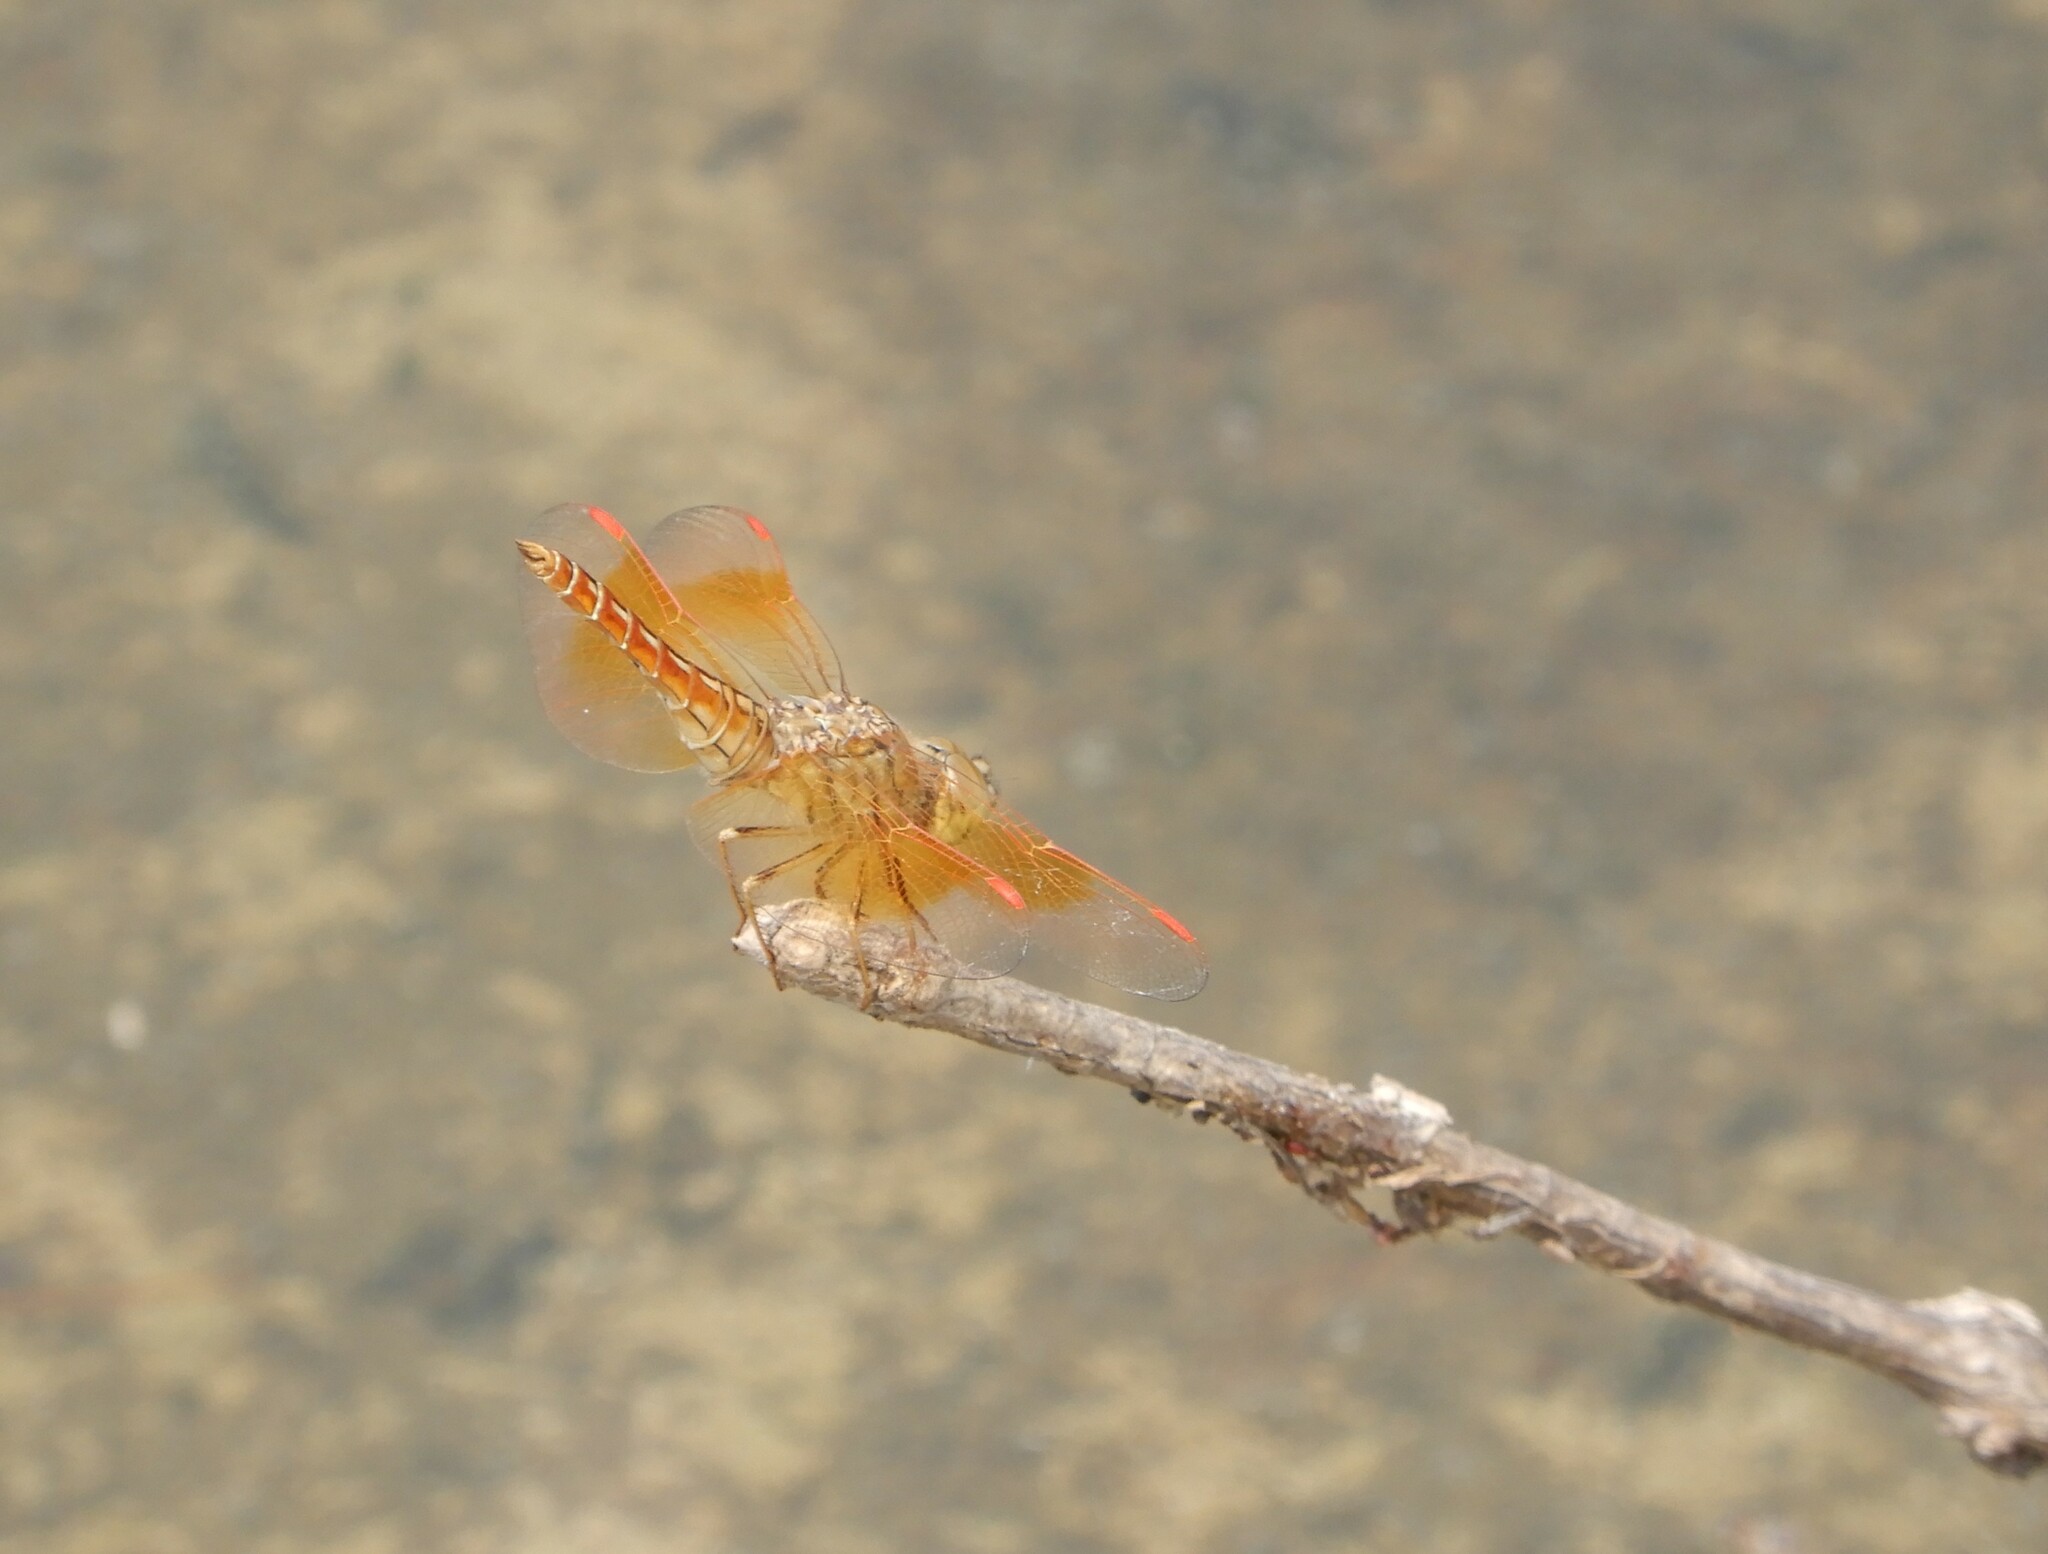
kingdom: Animalia
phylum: Arthropoda
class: Insecta
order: Odonata
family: Libellulidae
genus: Brachythemis
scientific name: Brachythemis contaminata
